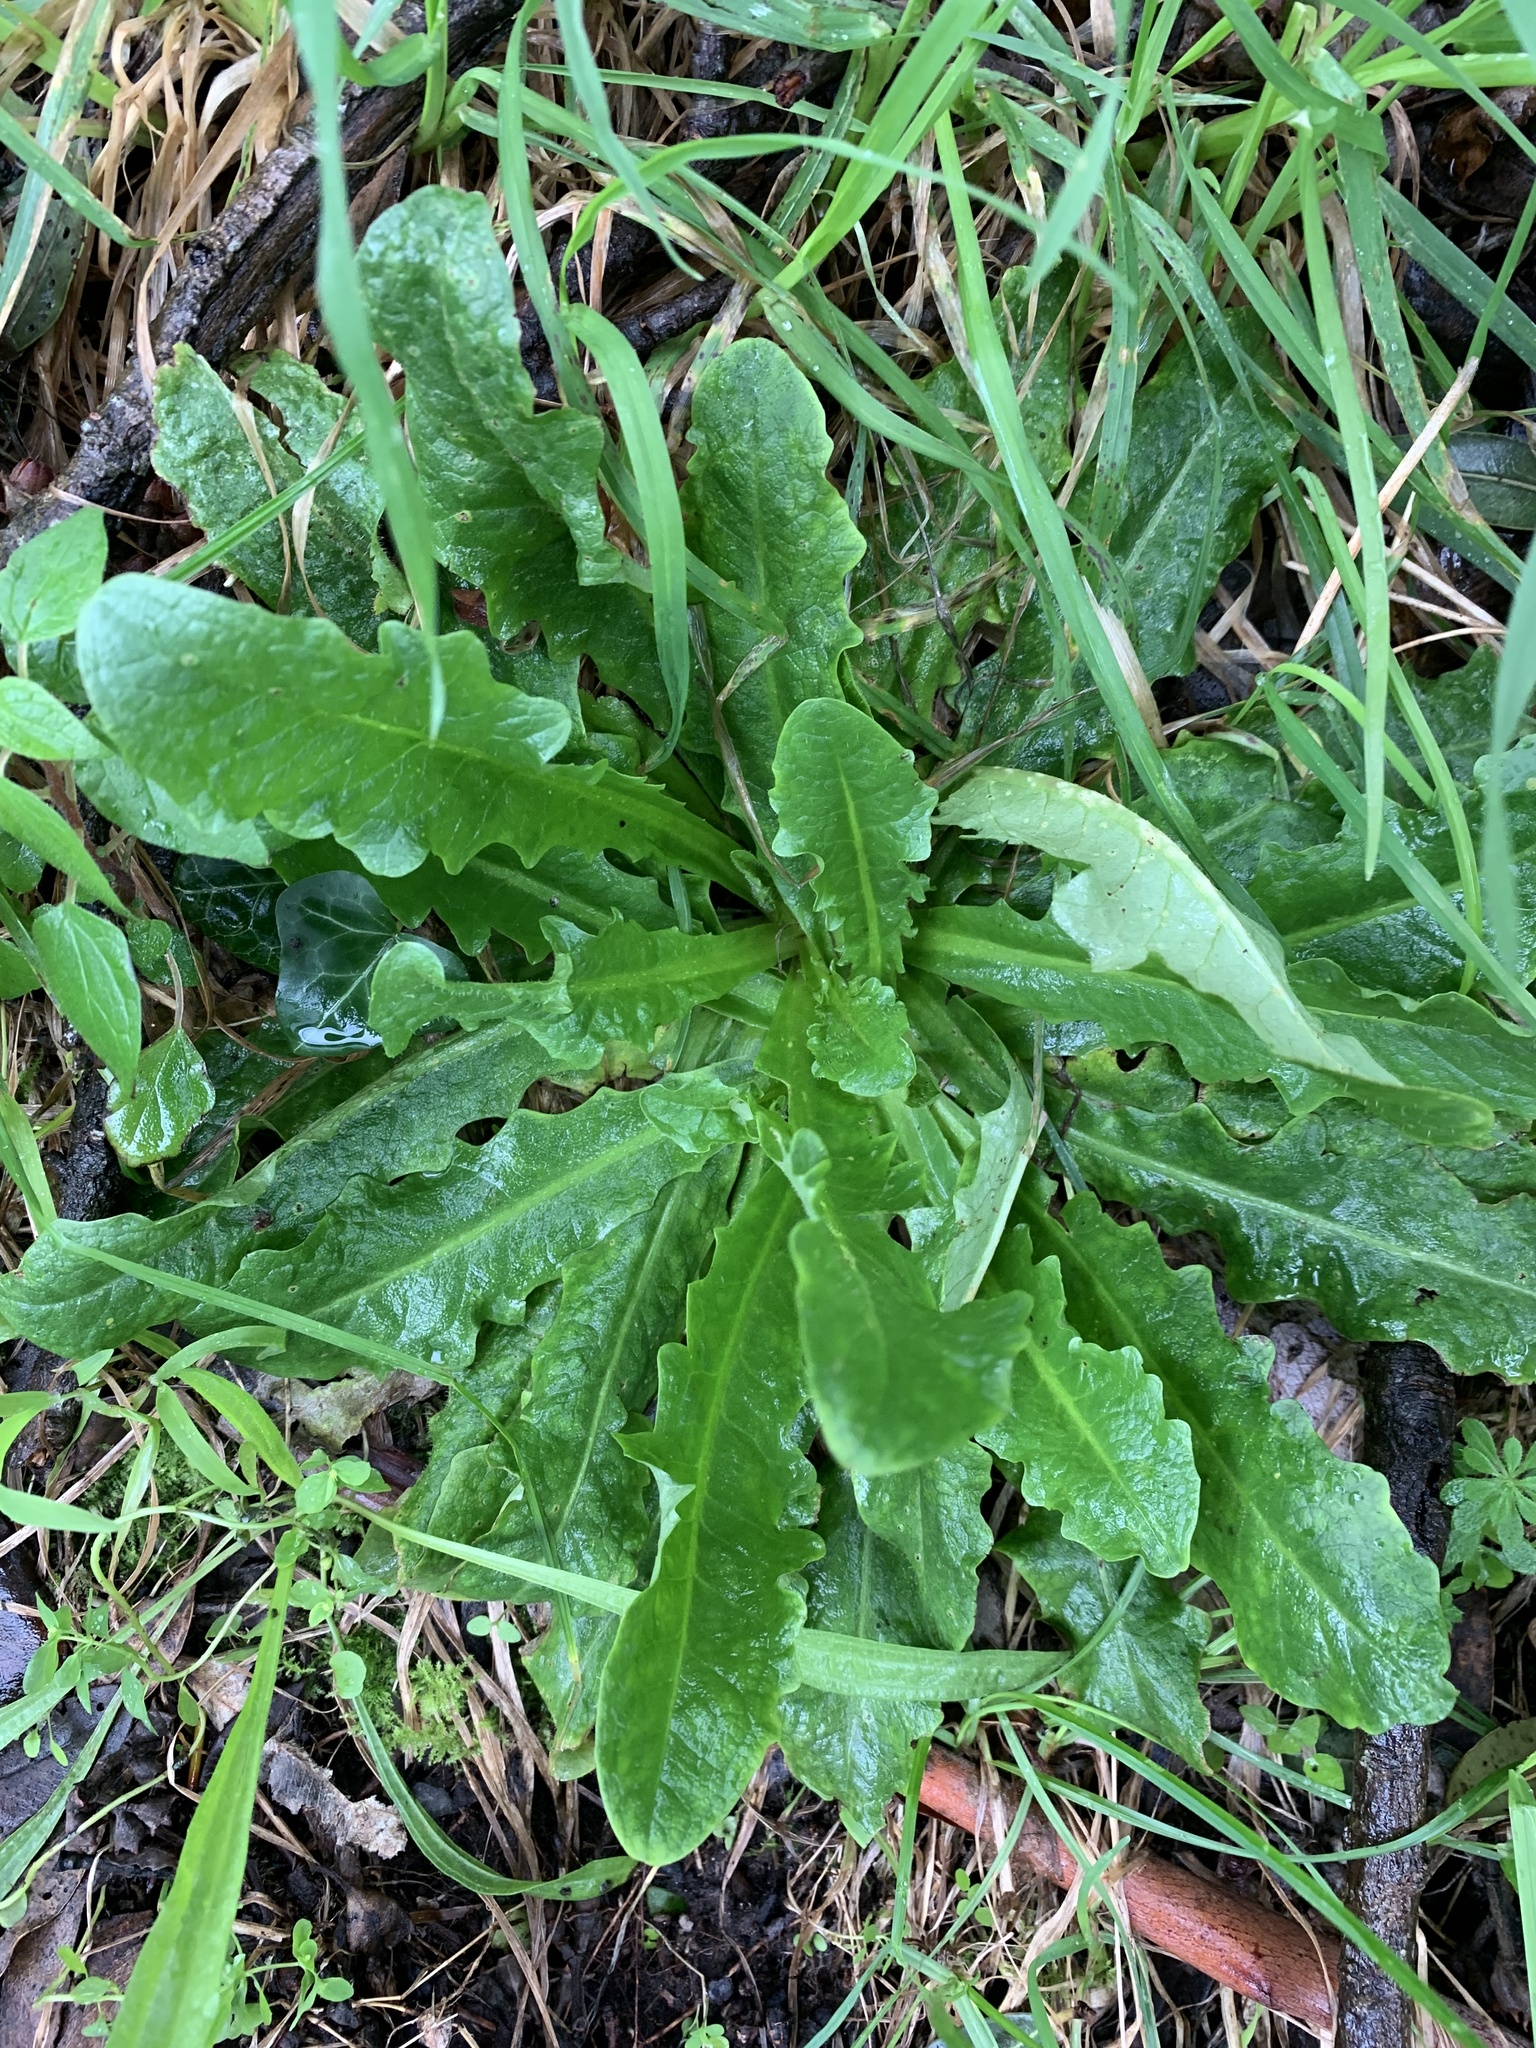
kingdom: Plantae
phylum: Tracheophyta
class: Magnoliopsida
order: Asterales
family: Asteraceae
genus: Hypochaeris
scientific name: Hypochaeris radicata
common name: Flatweed
